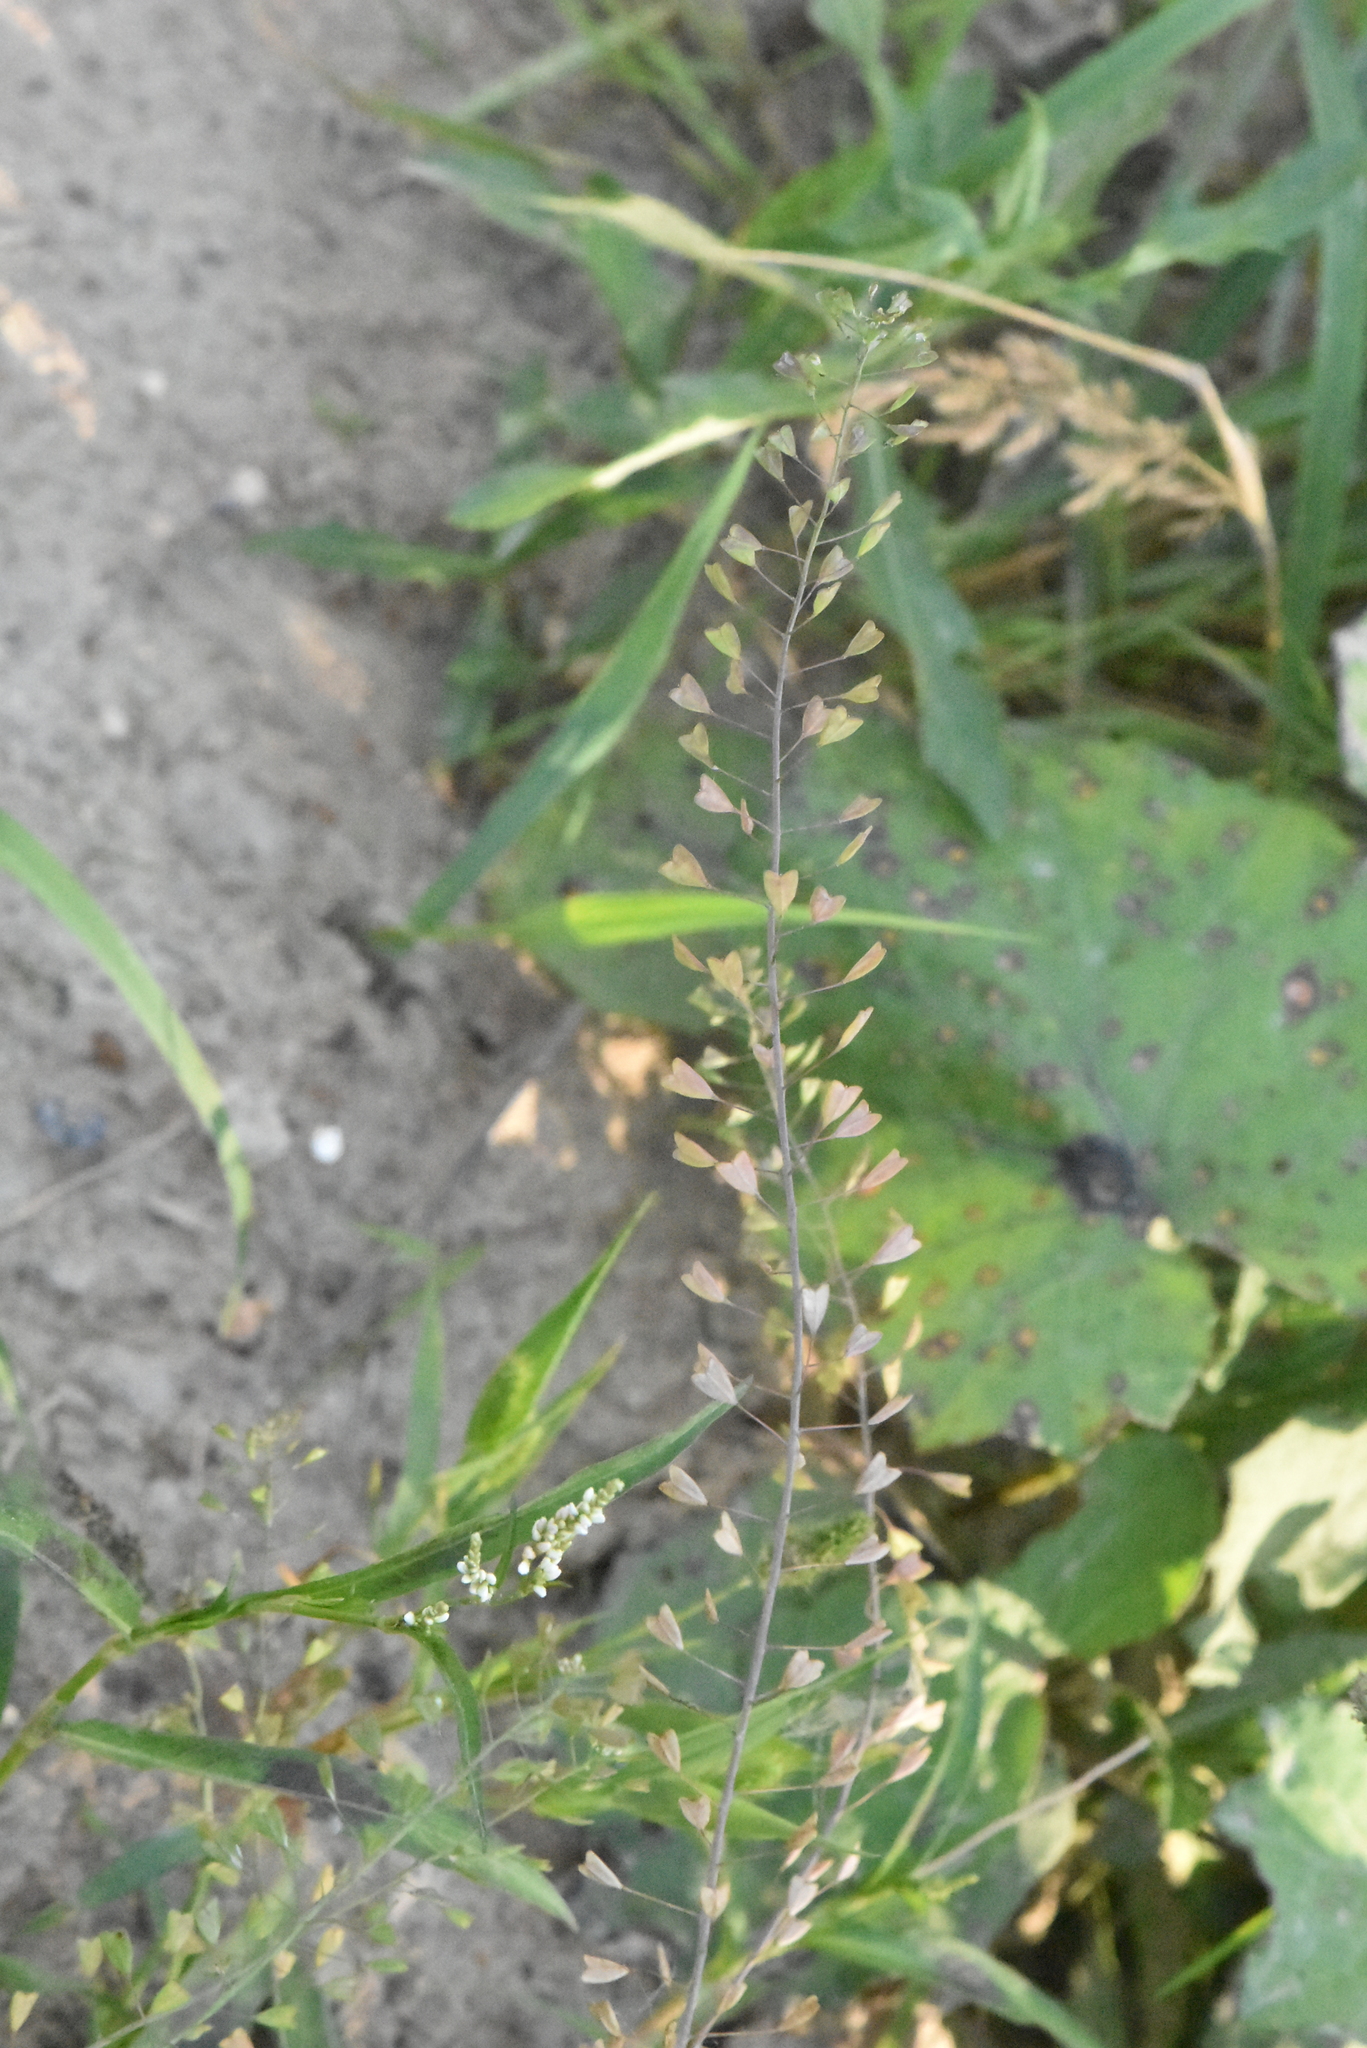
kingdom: Plantae
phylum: Tracheophyta
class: Magnoliopsida
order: Brassicales
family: Brassicaceae
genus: Capsella
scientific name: Capsella bursa-pastoris
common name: Shepherd's purse
